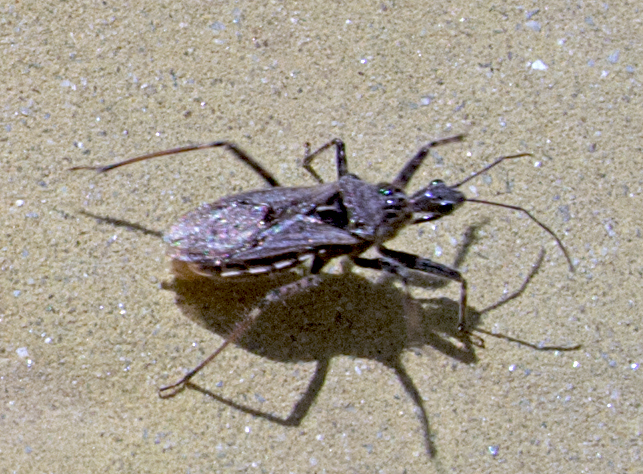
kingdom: Animalia
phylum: Arthropoda
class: Insecta
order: Hemiptera
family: Reduviidae
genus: Coranus
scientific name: Coranus kerzhneri
